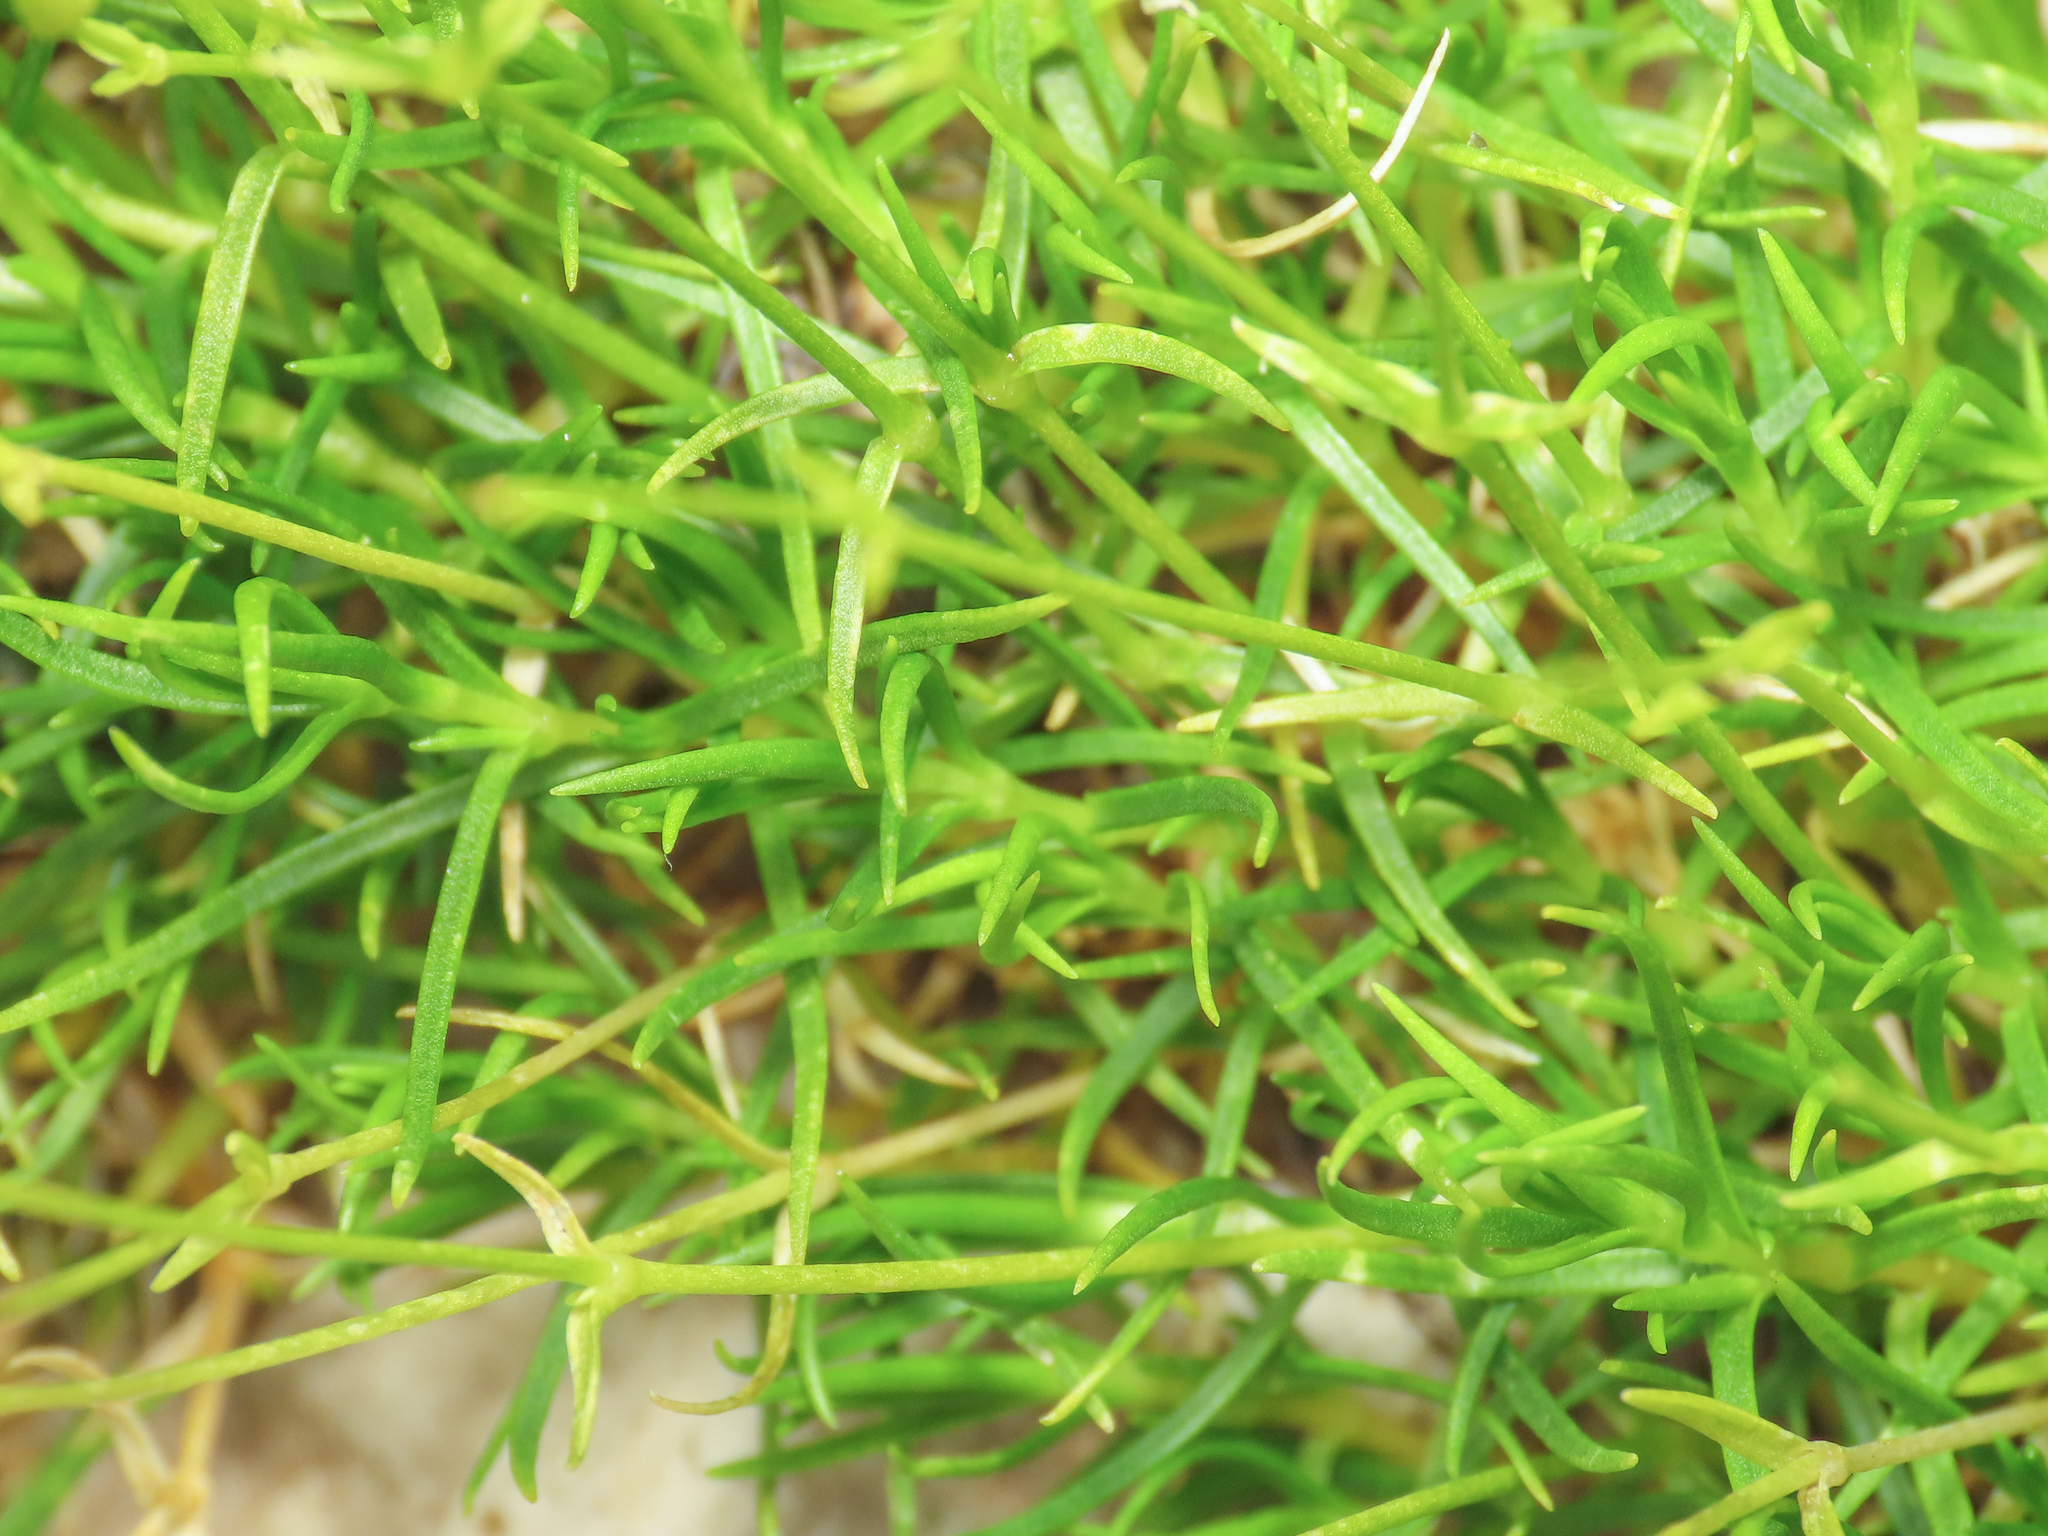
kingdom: Plantae
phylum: Tracheophyta
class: Magnoliopsida
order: Caryophyllales
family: Caryophyllaceae
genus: Sabulina
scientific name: Sabulina austriaca
